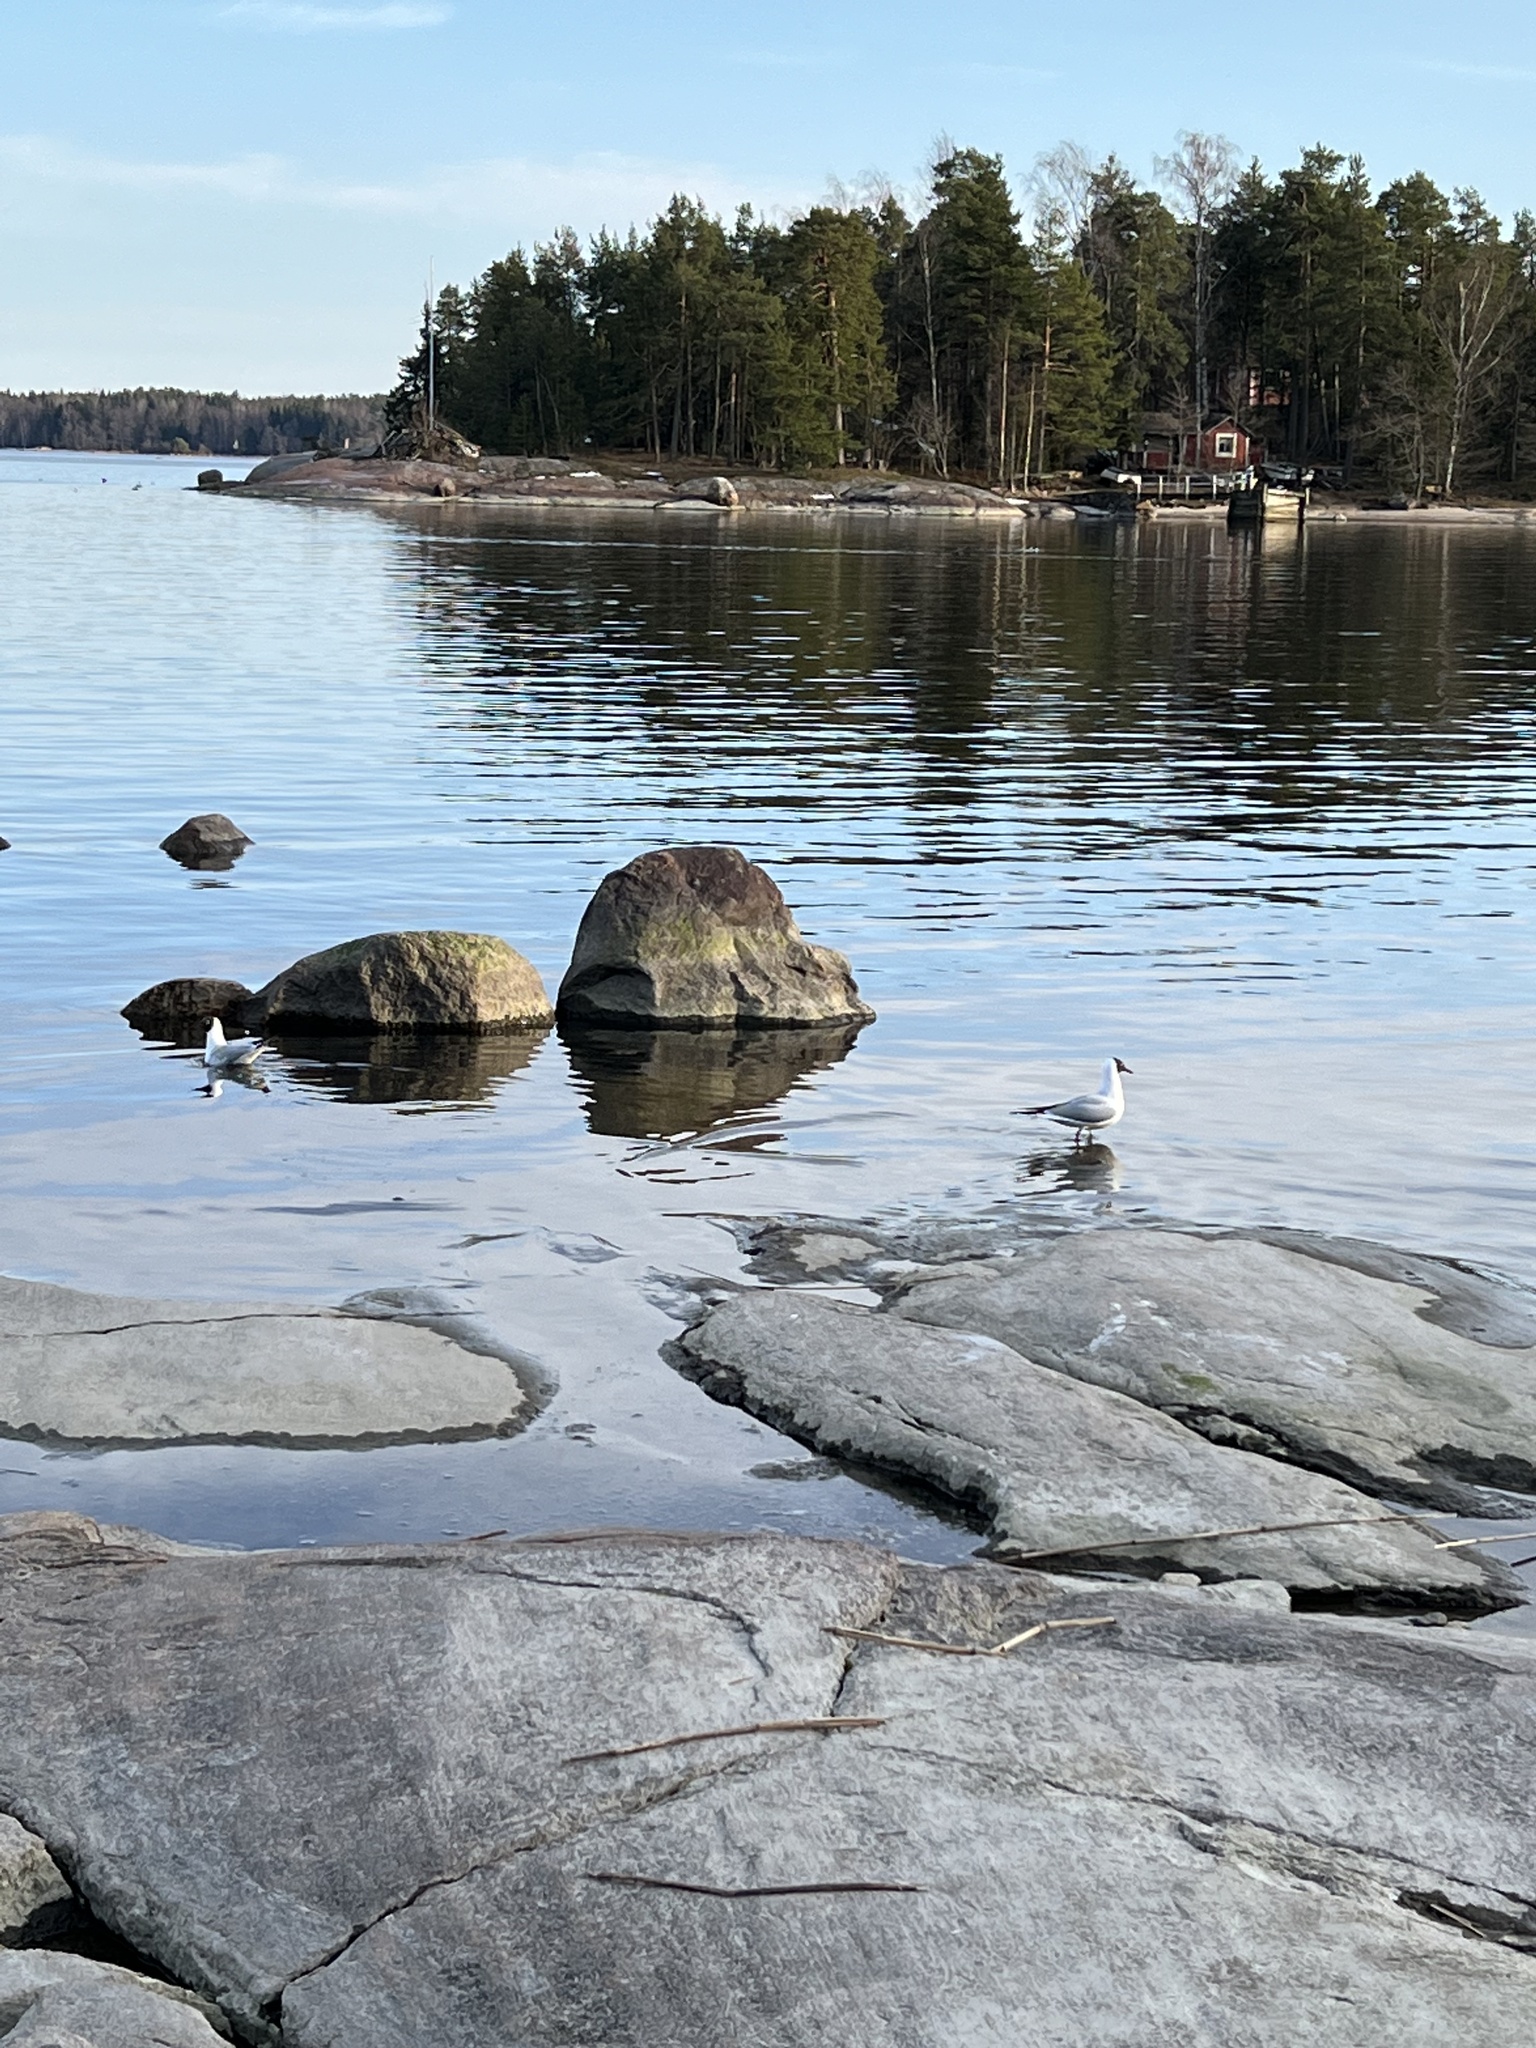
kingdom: Animalia
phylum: Chordata
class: Aves
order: Charadriiformes
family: Laridae
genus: Chroicocephalus
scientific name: Chroicocephalus ridibundus
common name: Black-headed gull
